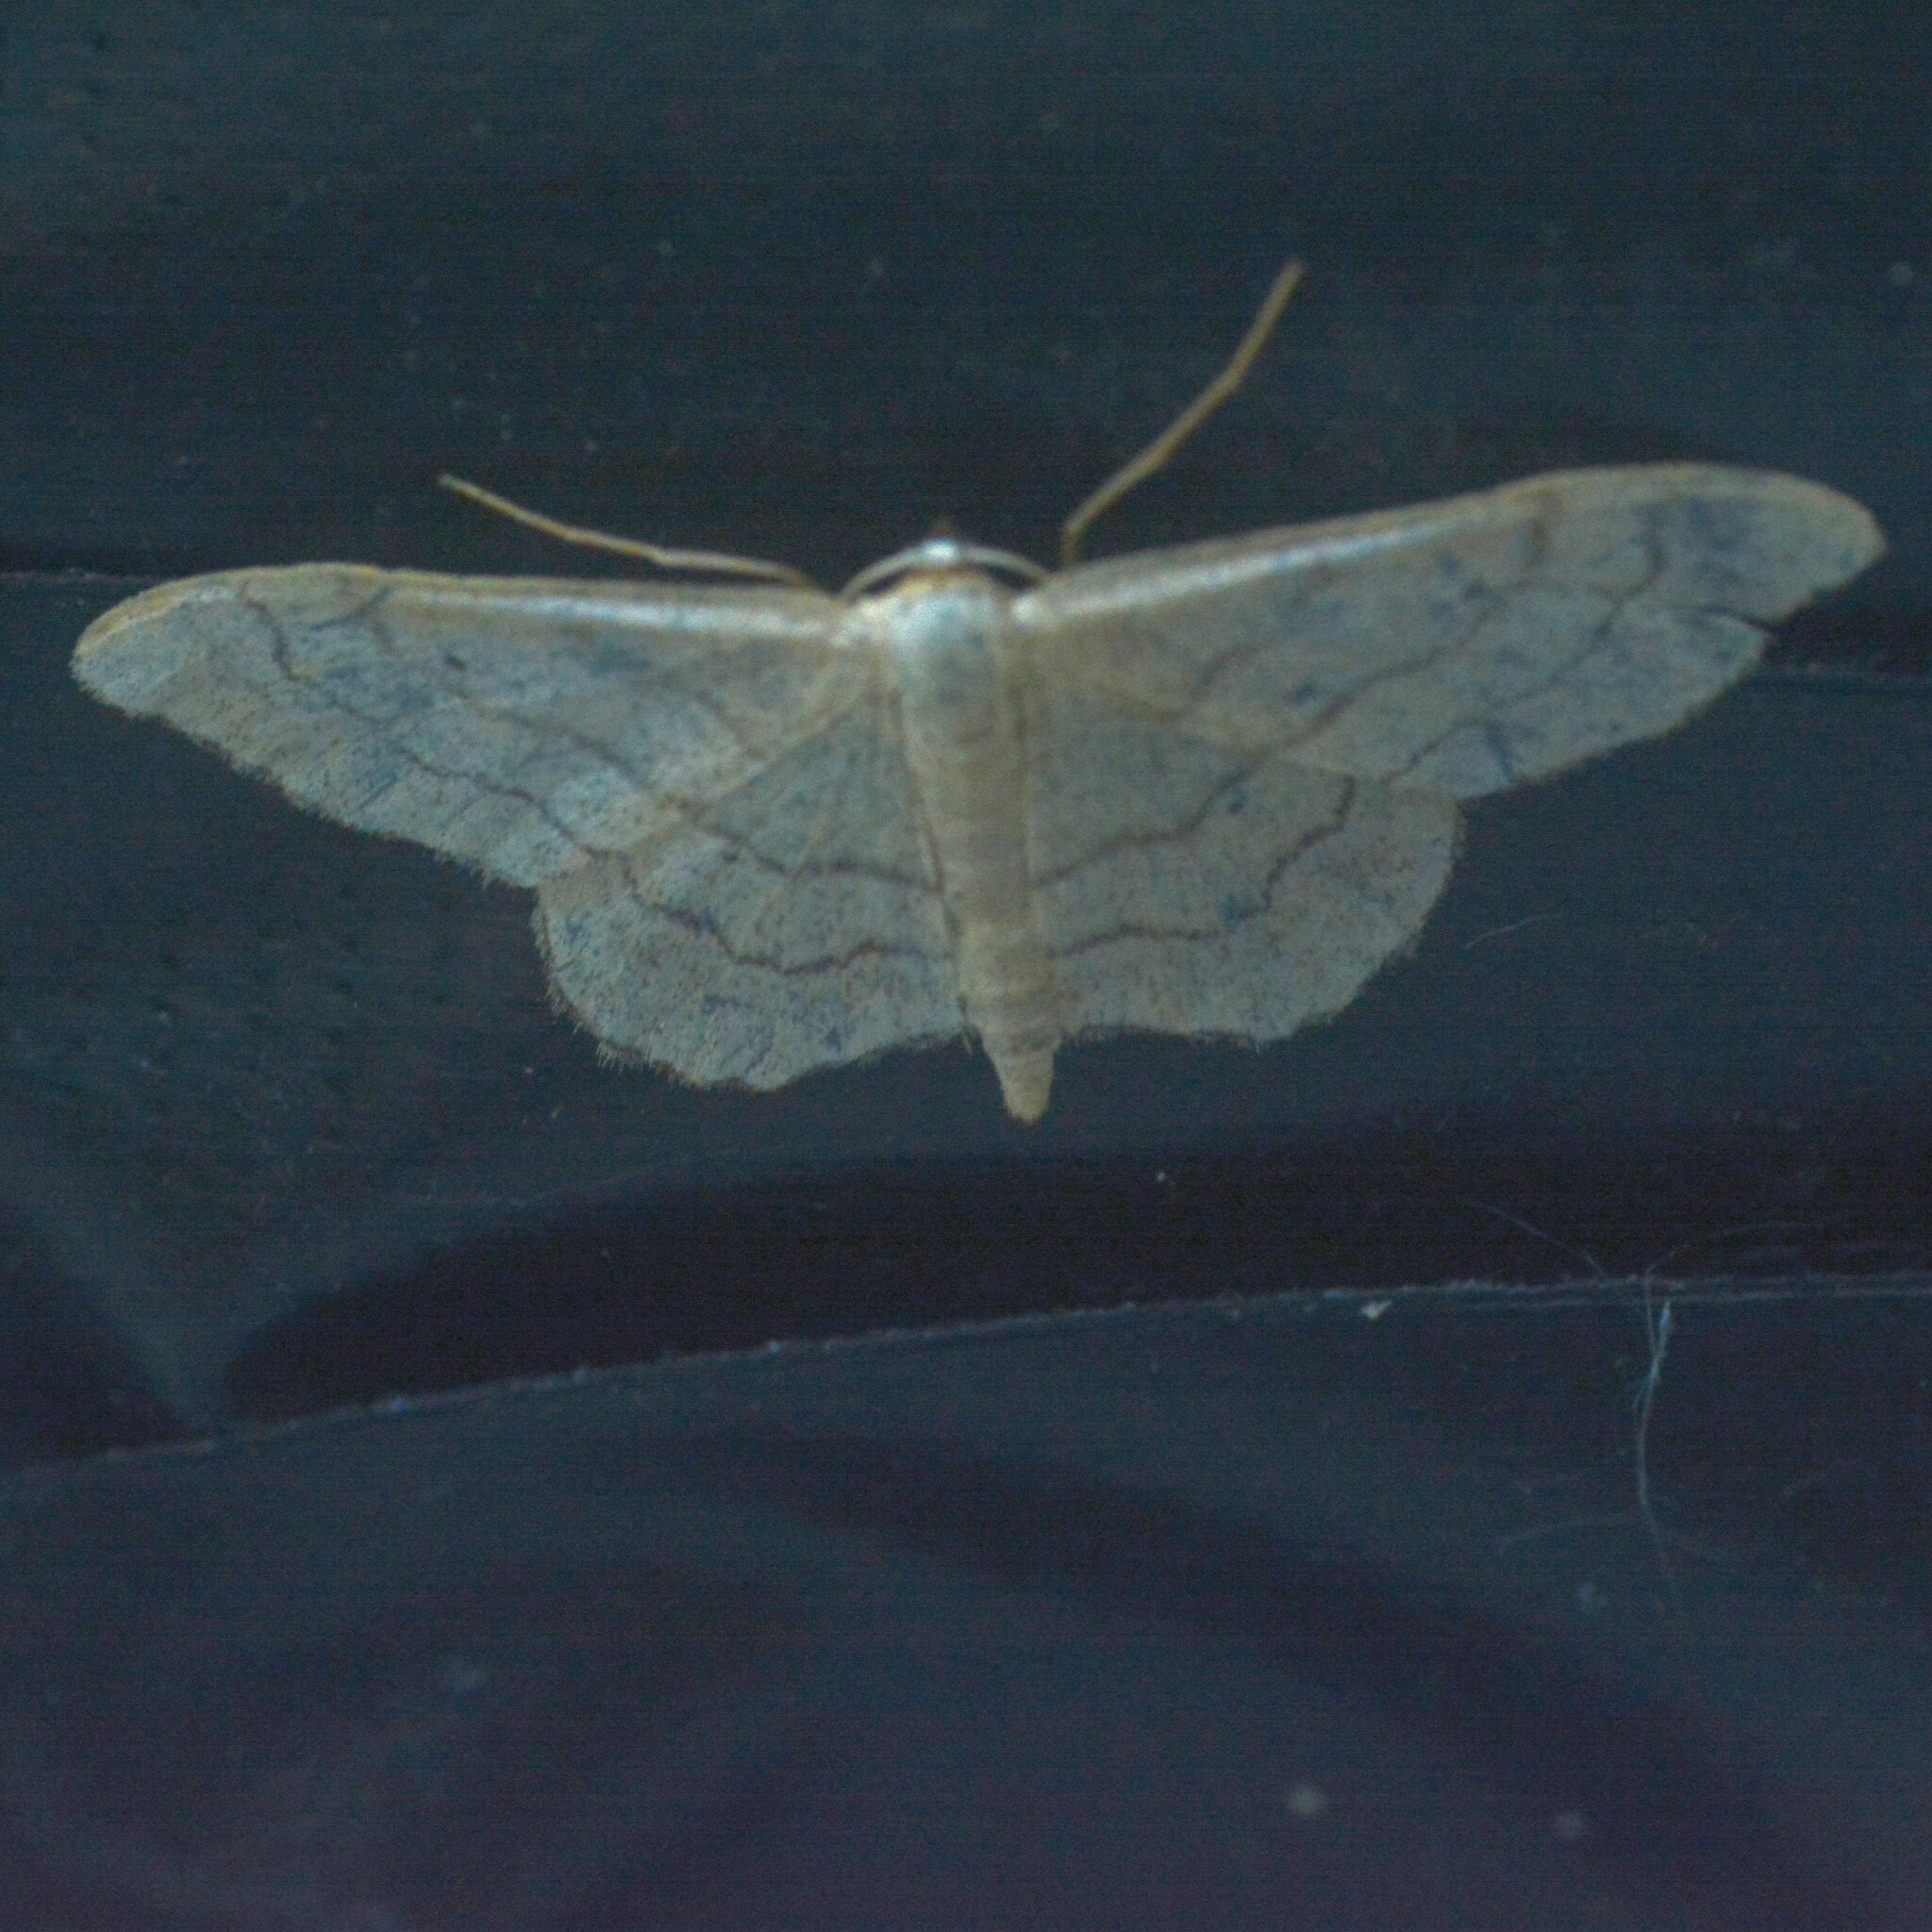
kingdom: Animalia
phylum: Arthropoda
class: Insecta
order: Lepidoptera
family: Geometridae
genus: Idaea
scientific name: Idaea aversata
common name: Riband wave
